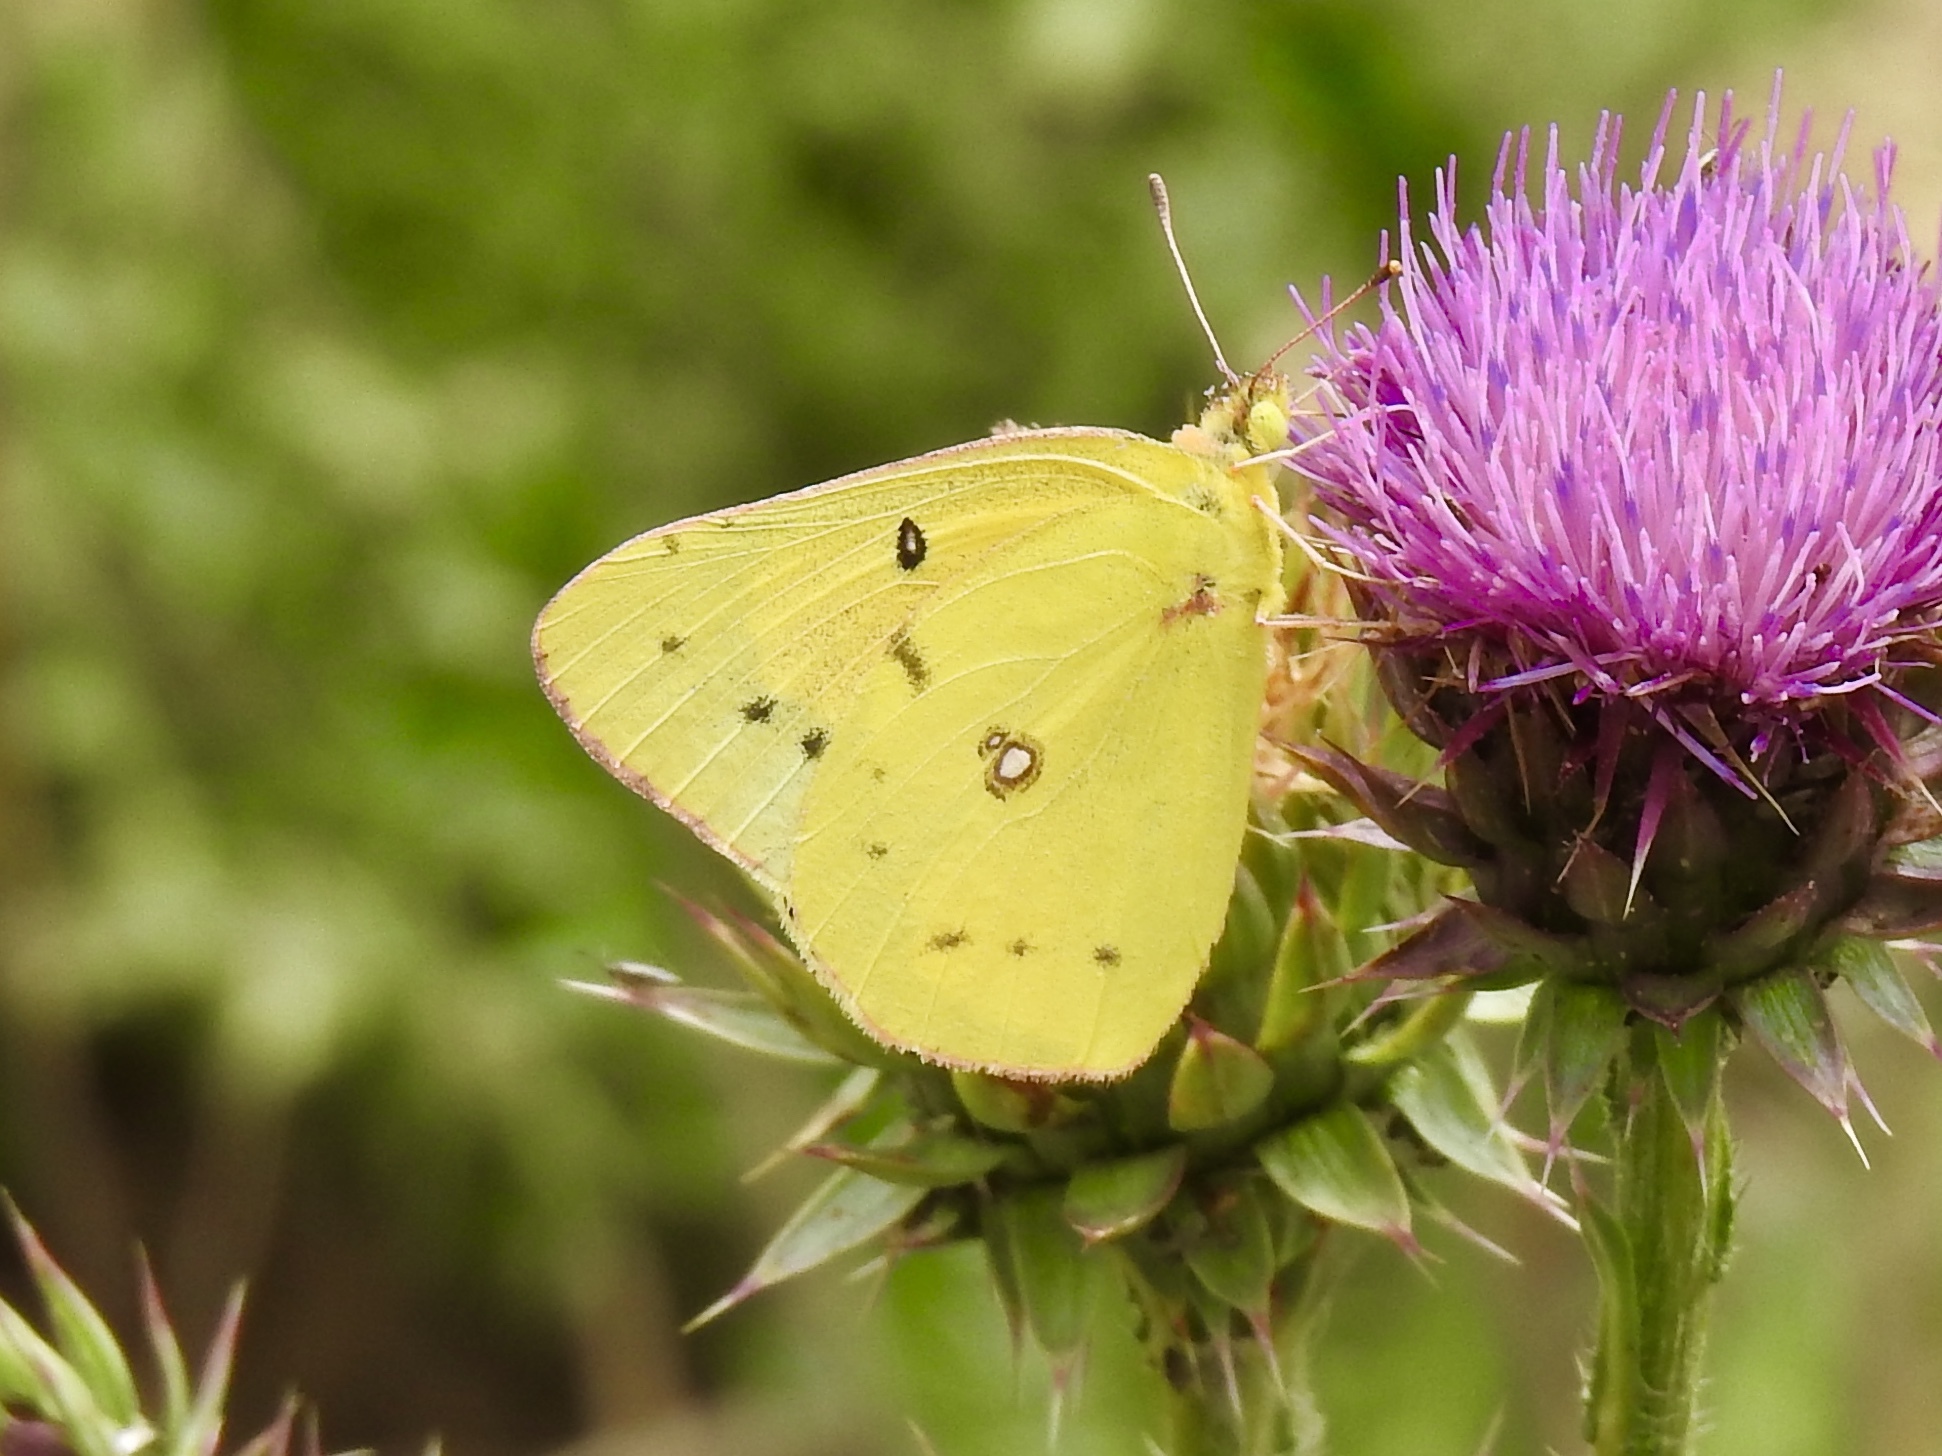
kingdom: Animalia
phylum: Arthropoda
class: Insecta
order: Lepidoptera
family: Pieridae
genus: Colias
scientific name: Colias eurytheme
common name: Alfalfa butterfly
